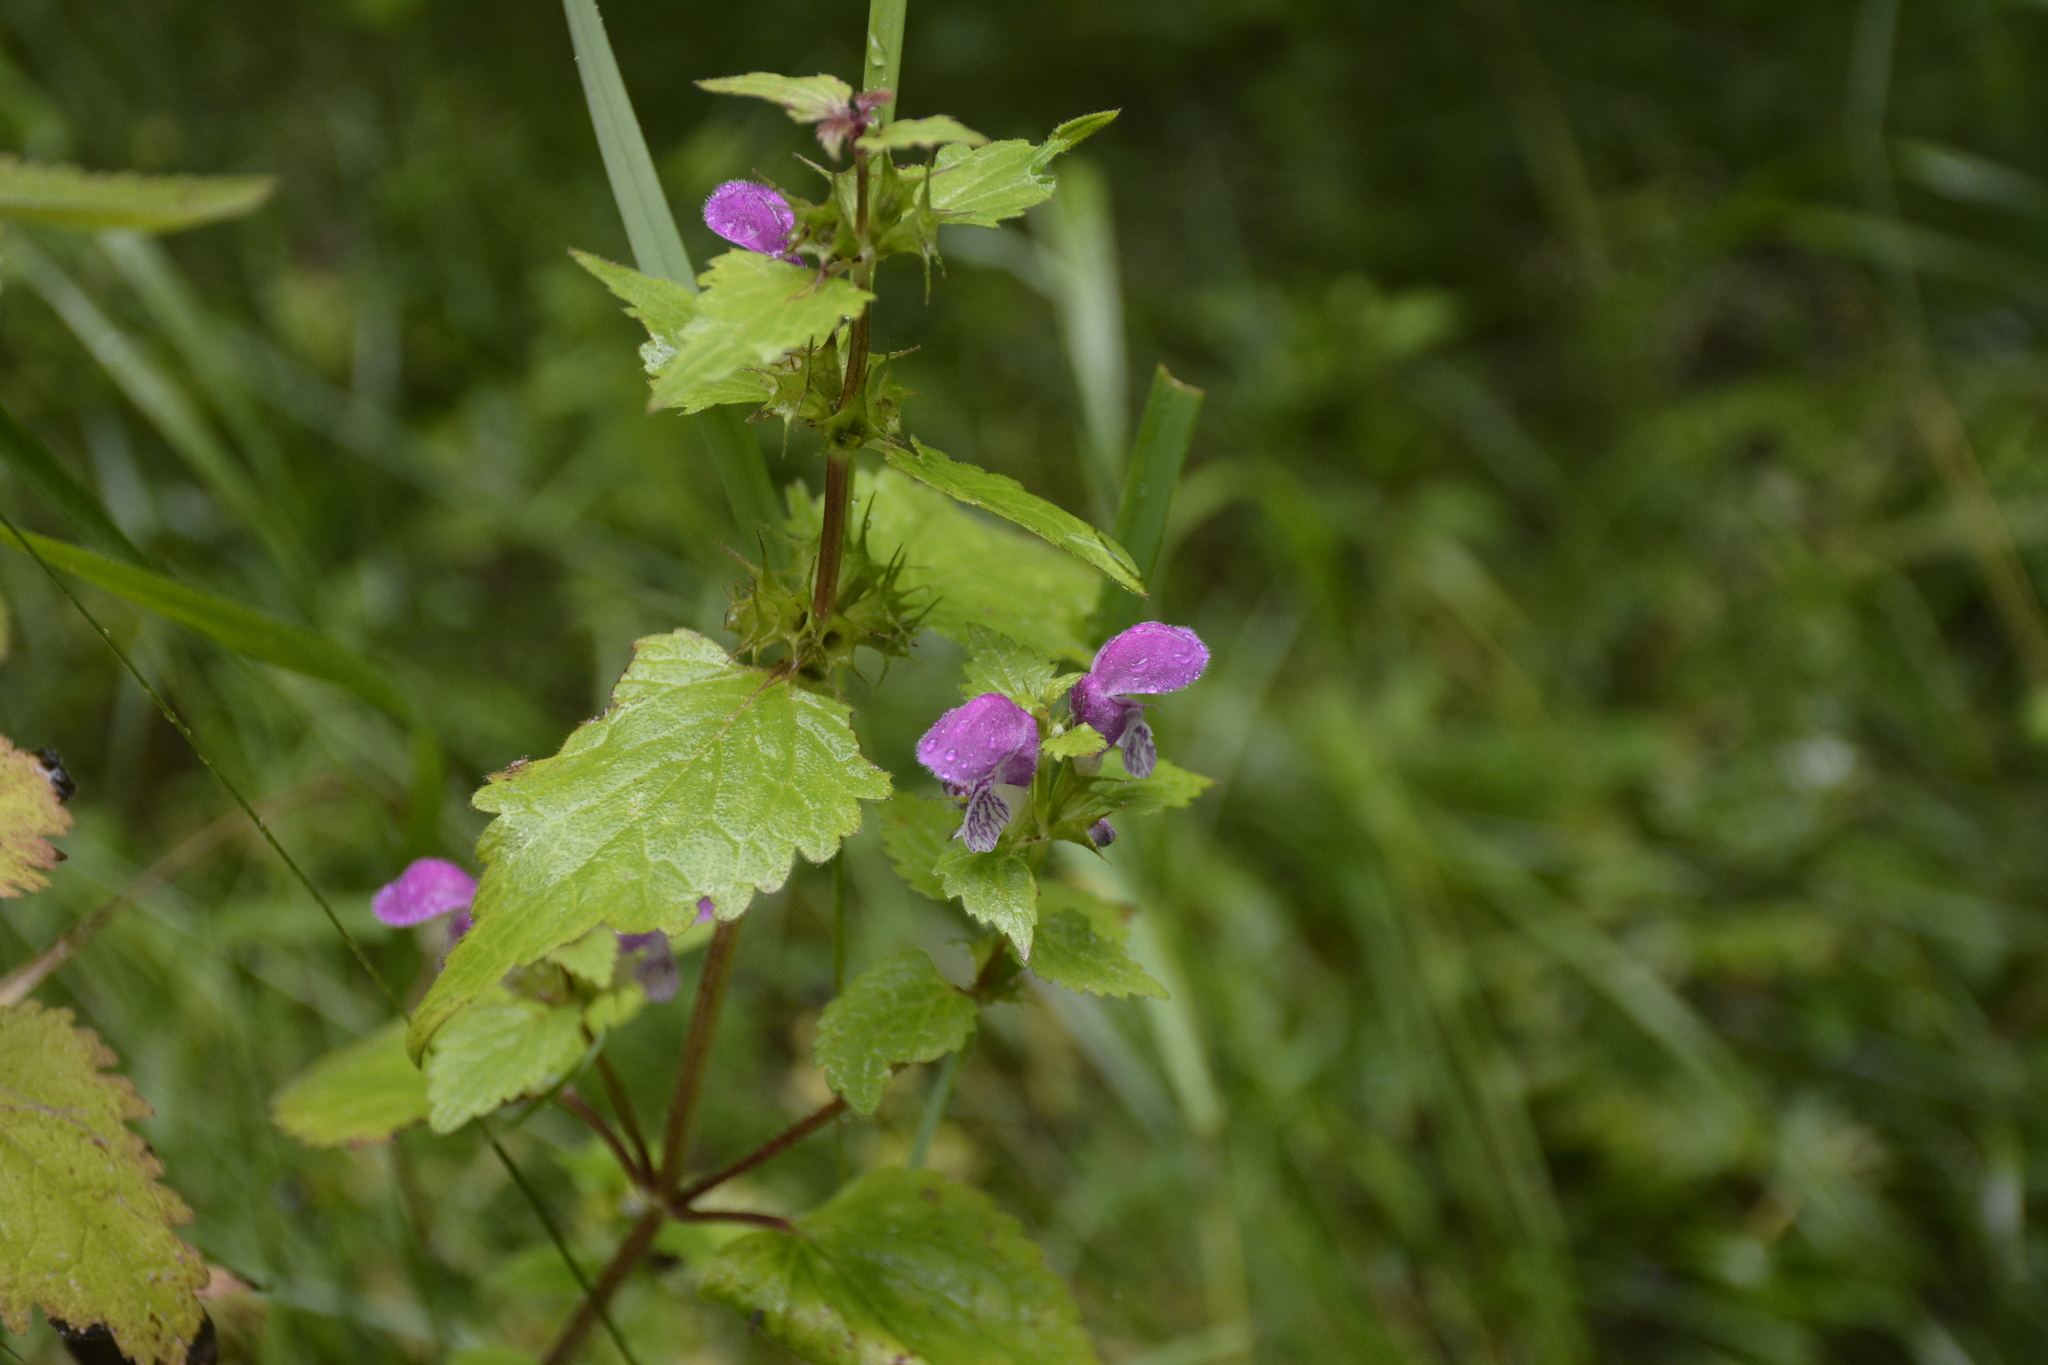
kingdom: Plantae
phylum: Tracheophyta
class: Magnoliopsida
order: Lamiales
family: Lamiaceae
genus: Lamium
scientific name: Lamium maculatum
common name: Spotted dead-nettle
